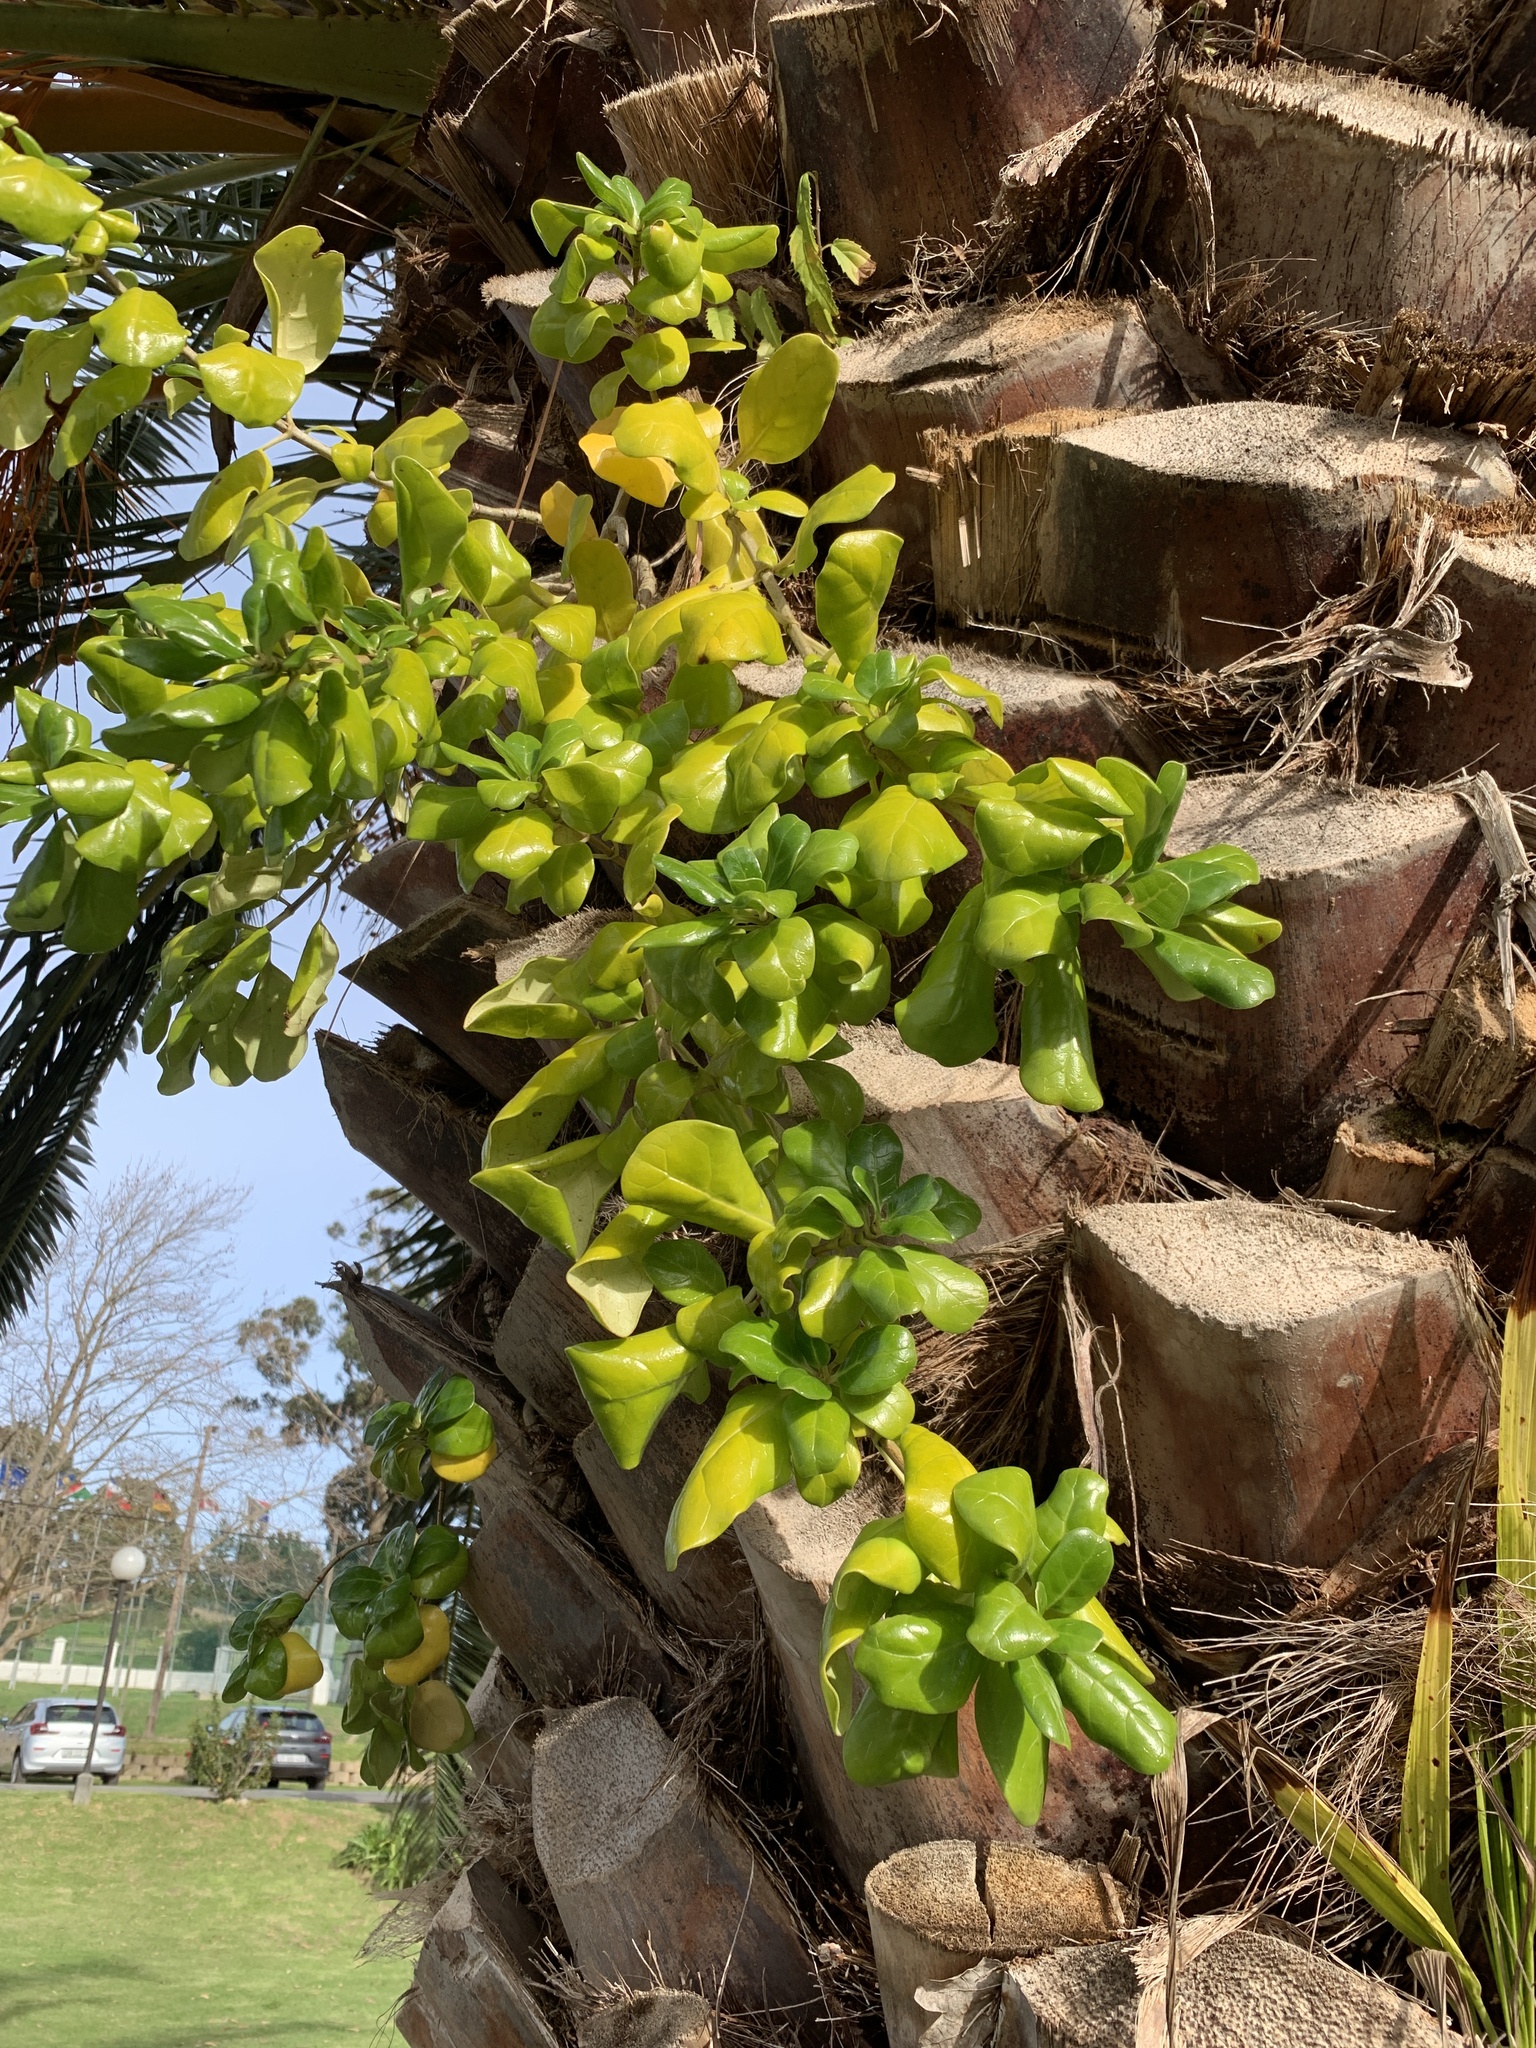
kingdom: Plantae
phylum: Tracheophyta
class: Magnoliopsida
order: Gentianales
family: Rubiaceae
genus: Coprosma
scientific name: Coprosma repens
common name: Tree bedstraw
